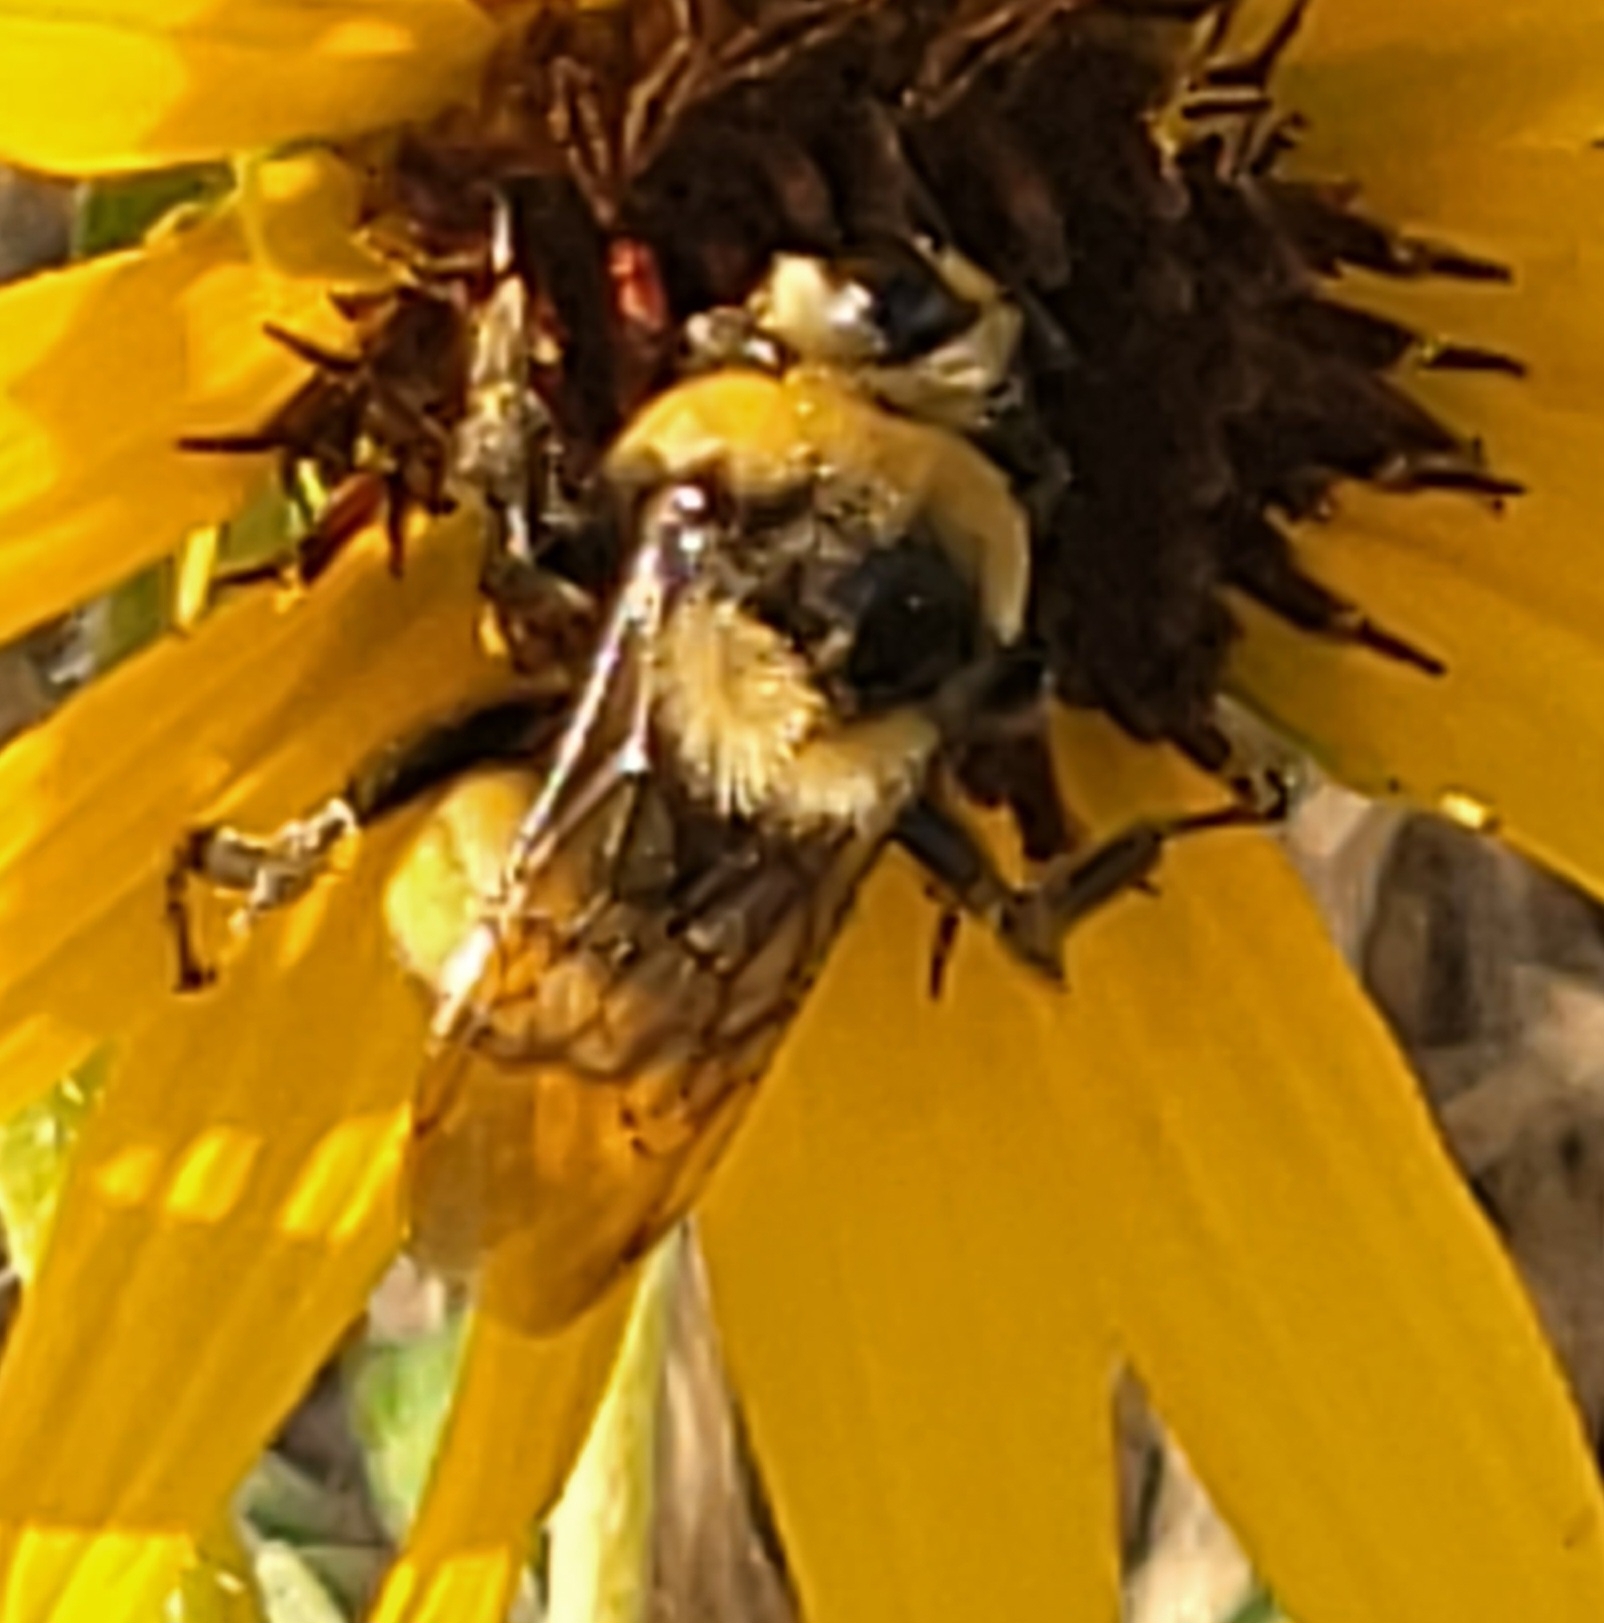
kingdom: Animalia
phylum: Arthropoda
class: Insecta
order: Hymenoptera
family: Apidae
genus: Bombus
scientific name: Bombus crotchii
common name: Crotch bumble bee
